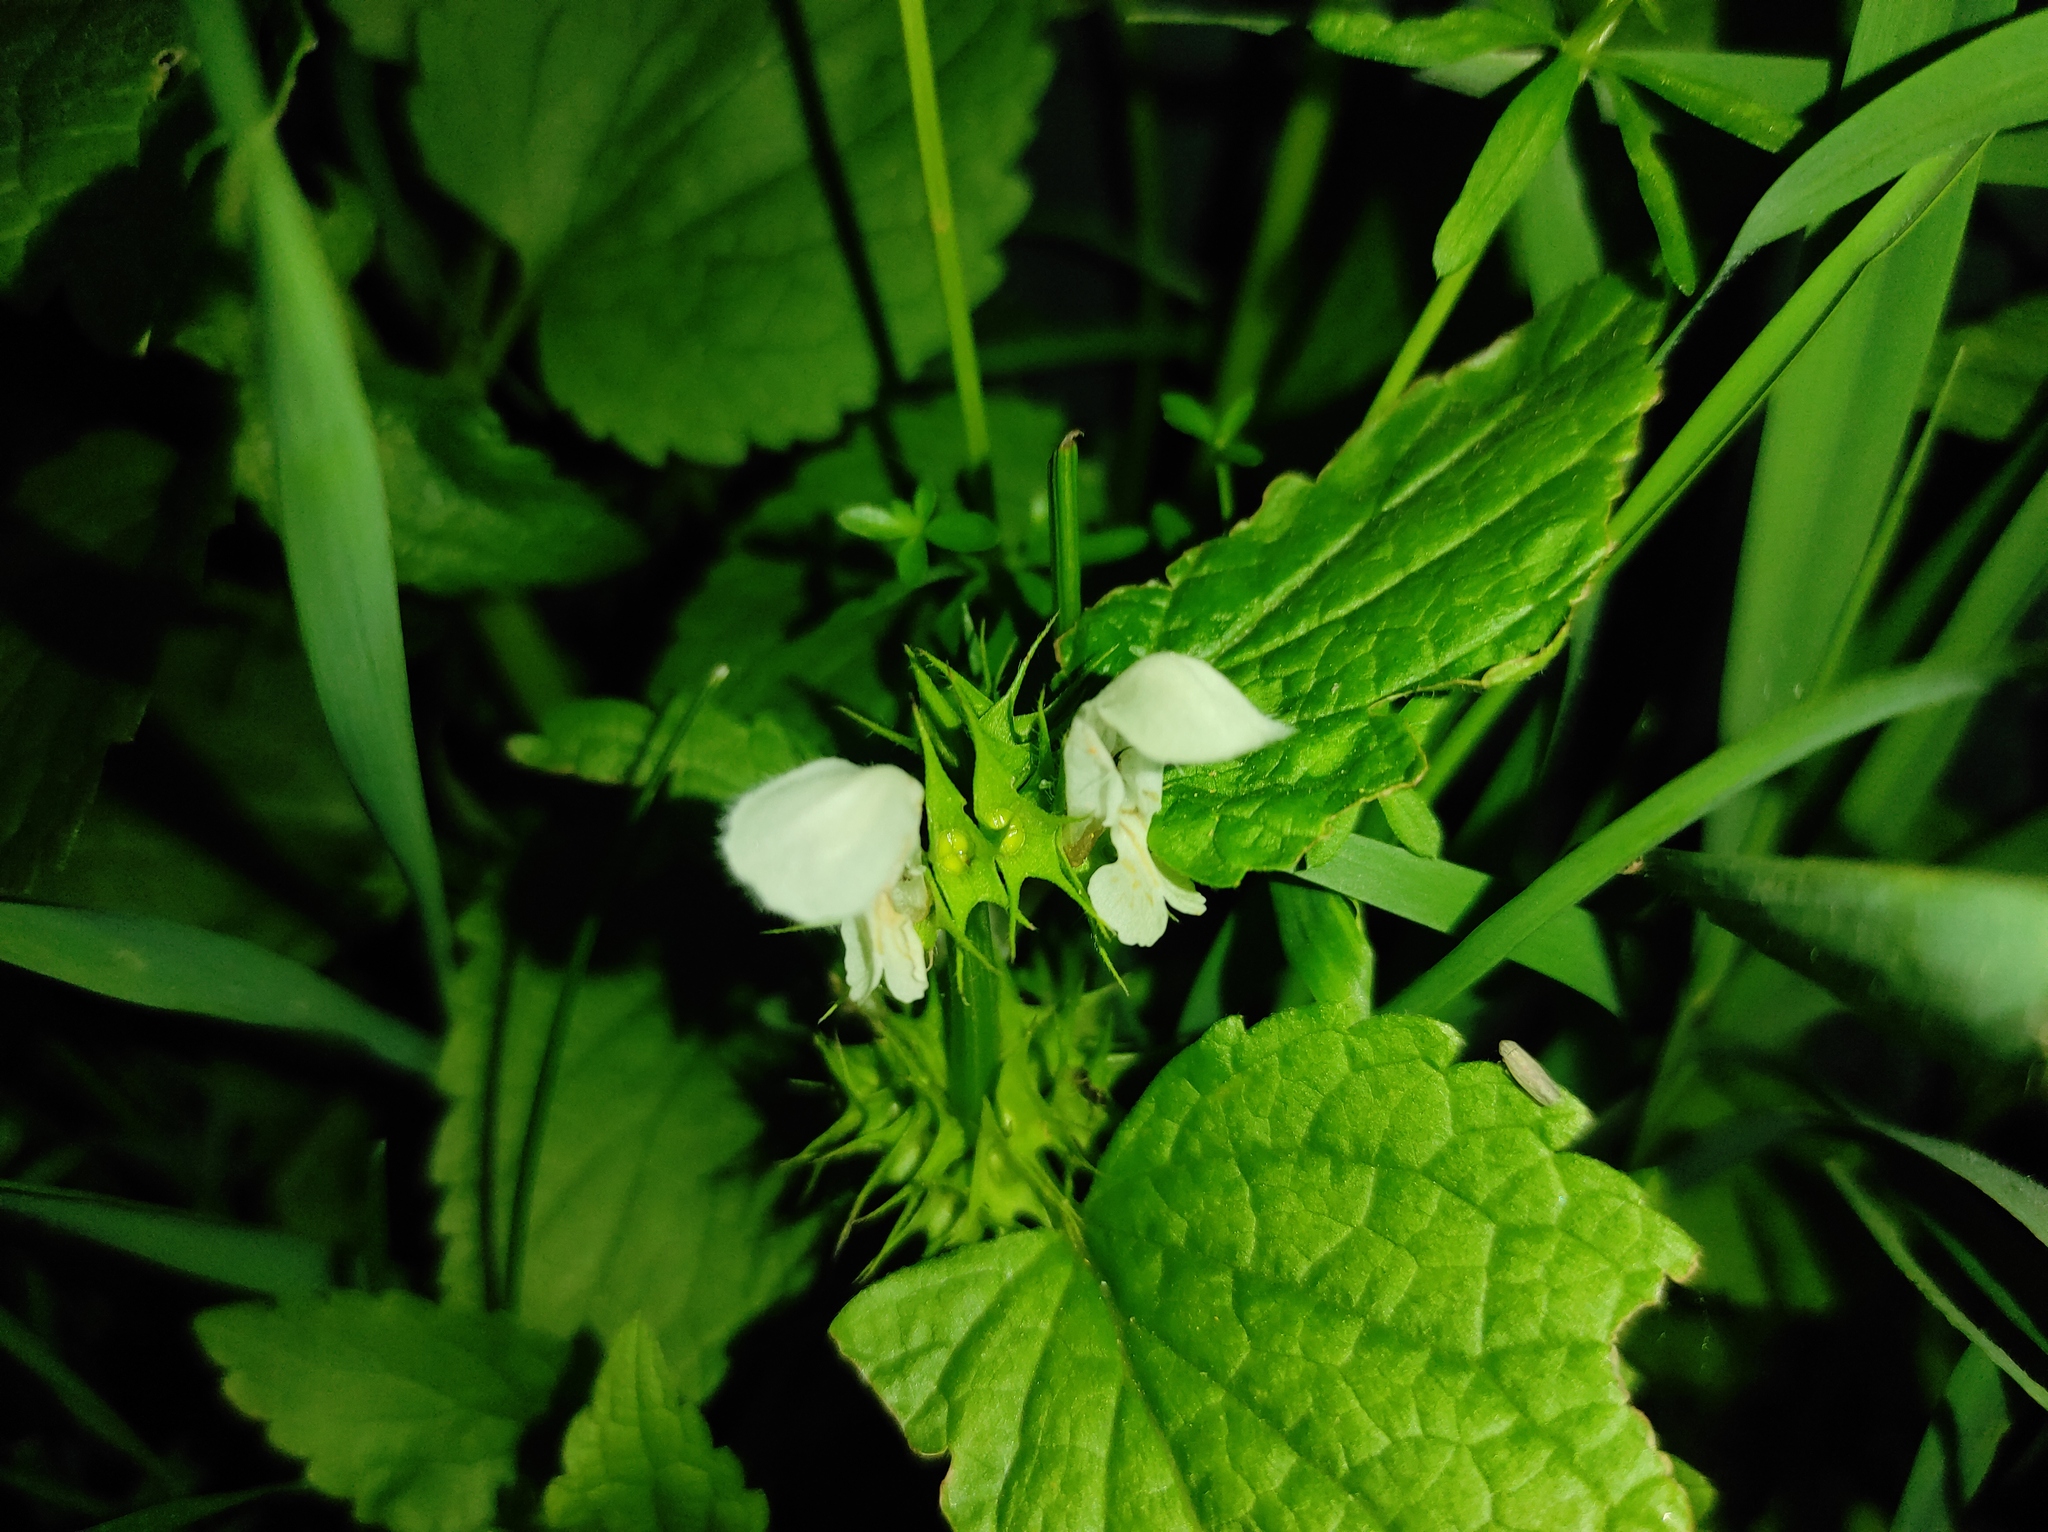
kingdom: Plantae
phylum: Tracheophyta
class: Magnoliopsida
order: Lamiales
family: Lamiaceae
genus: Lamium
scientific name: Lamium album
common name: White dead-nettle
